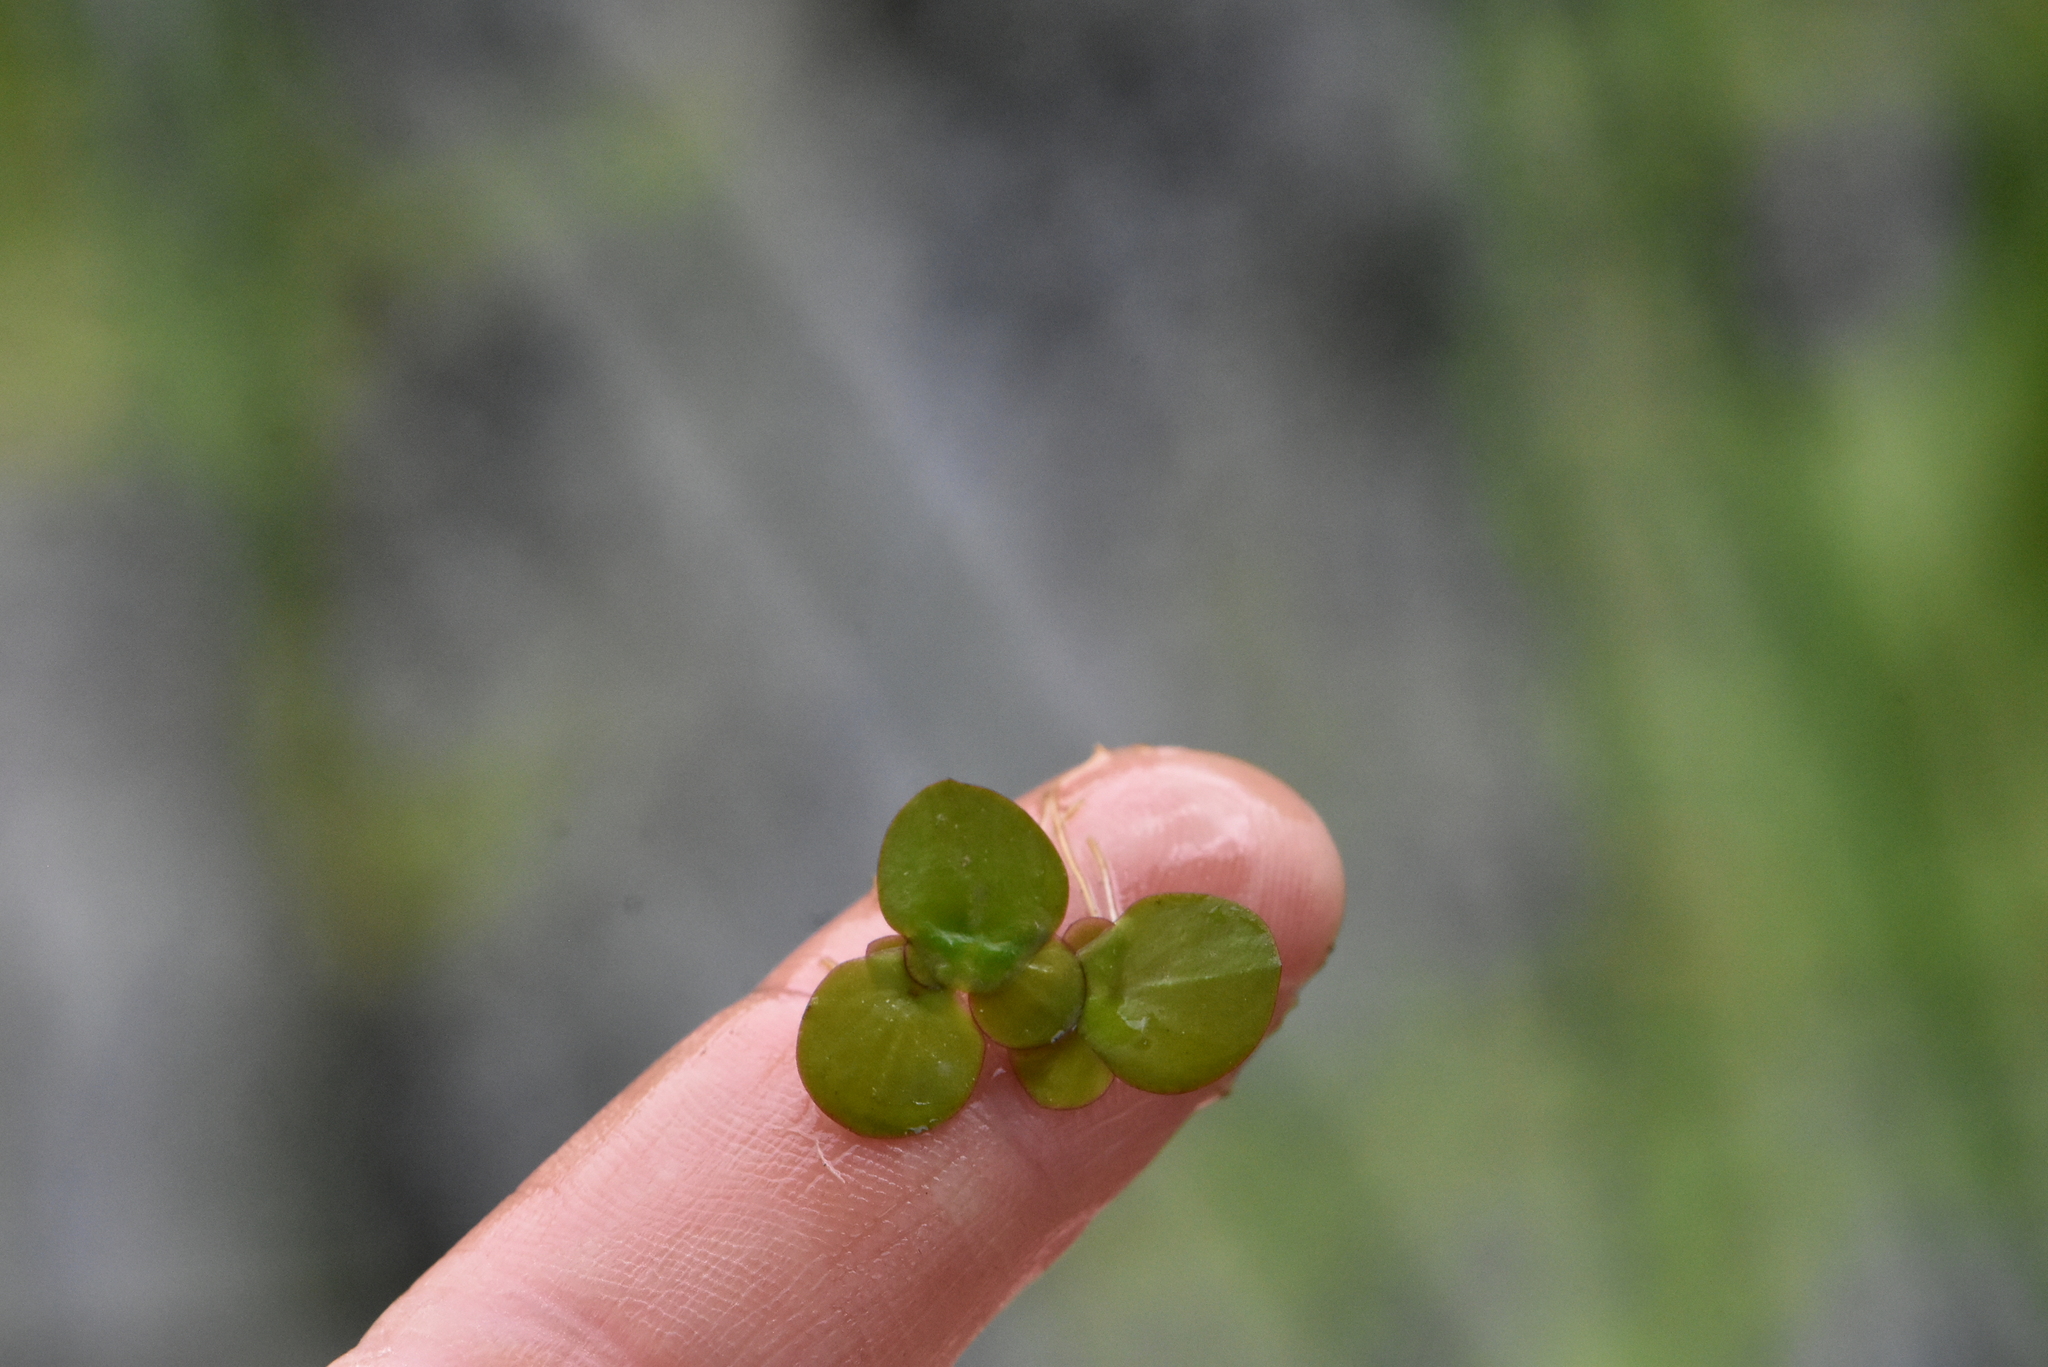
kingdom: Plantae
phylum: Tracheophyta
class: Liliopsida
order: Alismatales
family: Araceae
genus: Spirodela
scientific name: Spirodela polyrhiza
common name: Great duckweed
